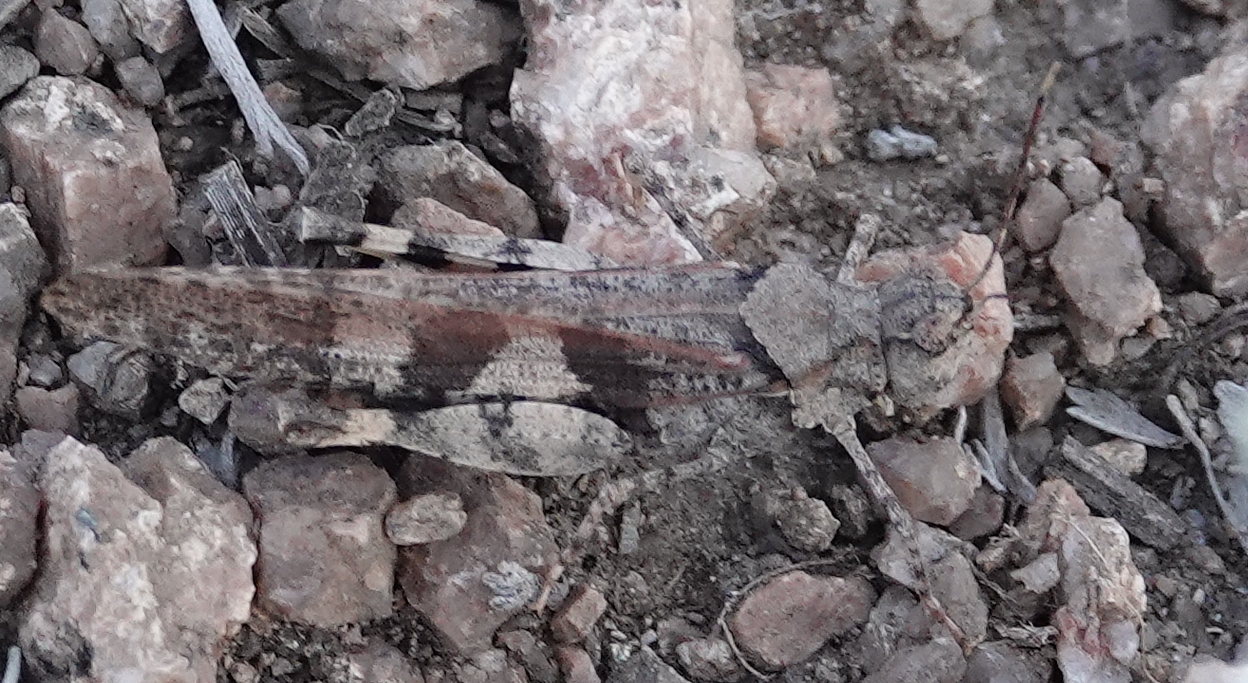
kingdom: Animalia
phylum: Arthropoda
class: Insecta
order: Orthoptera
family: Acrididae
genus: Trimerotropis
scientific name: Trimerotropis pallidipennis
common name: Pallid-winged grasshopper
